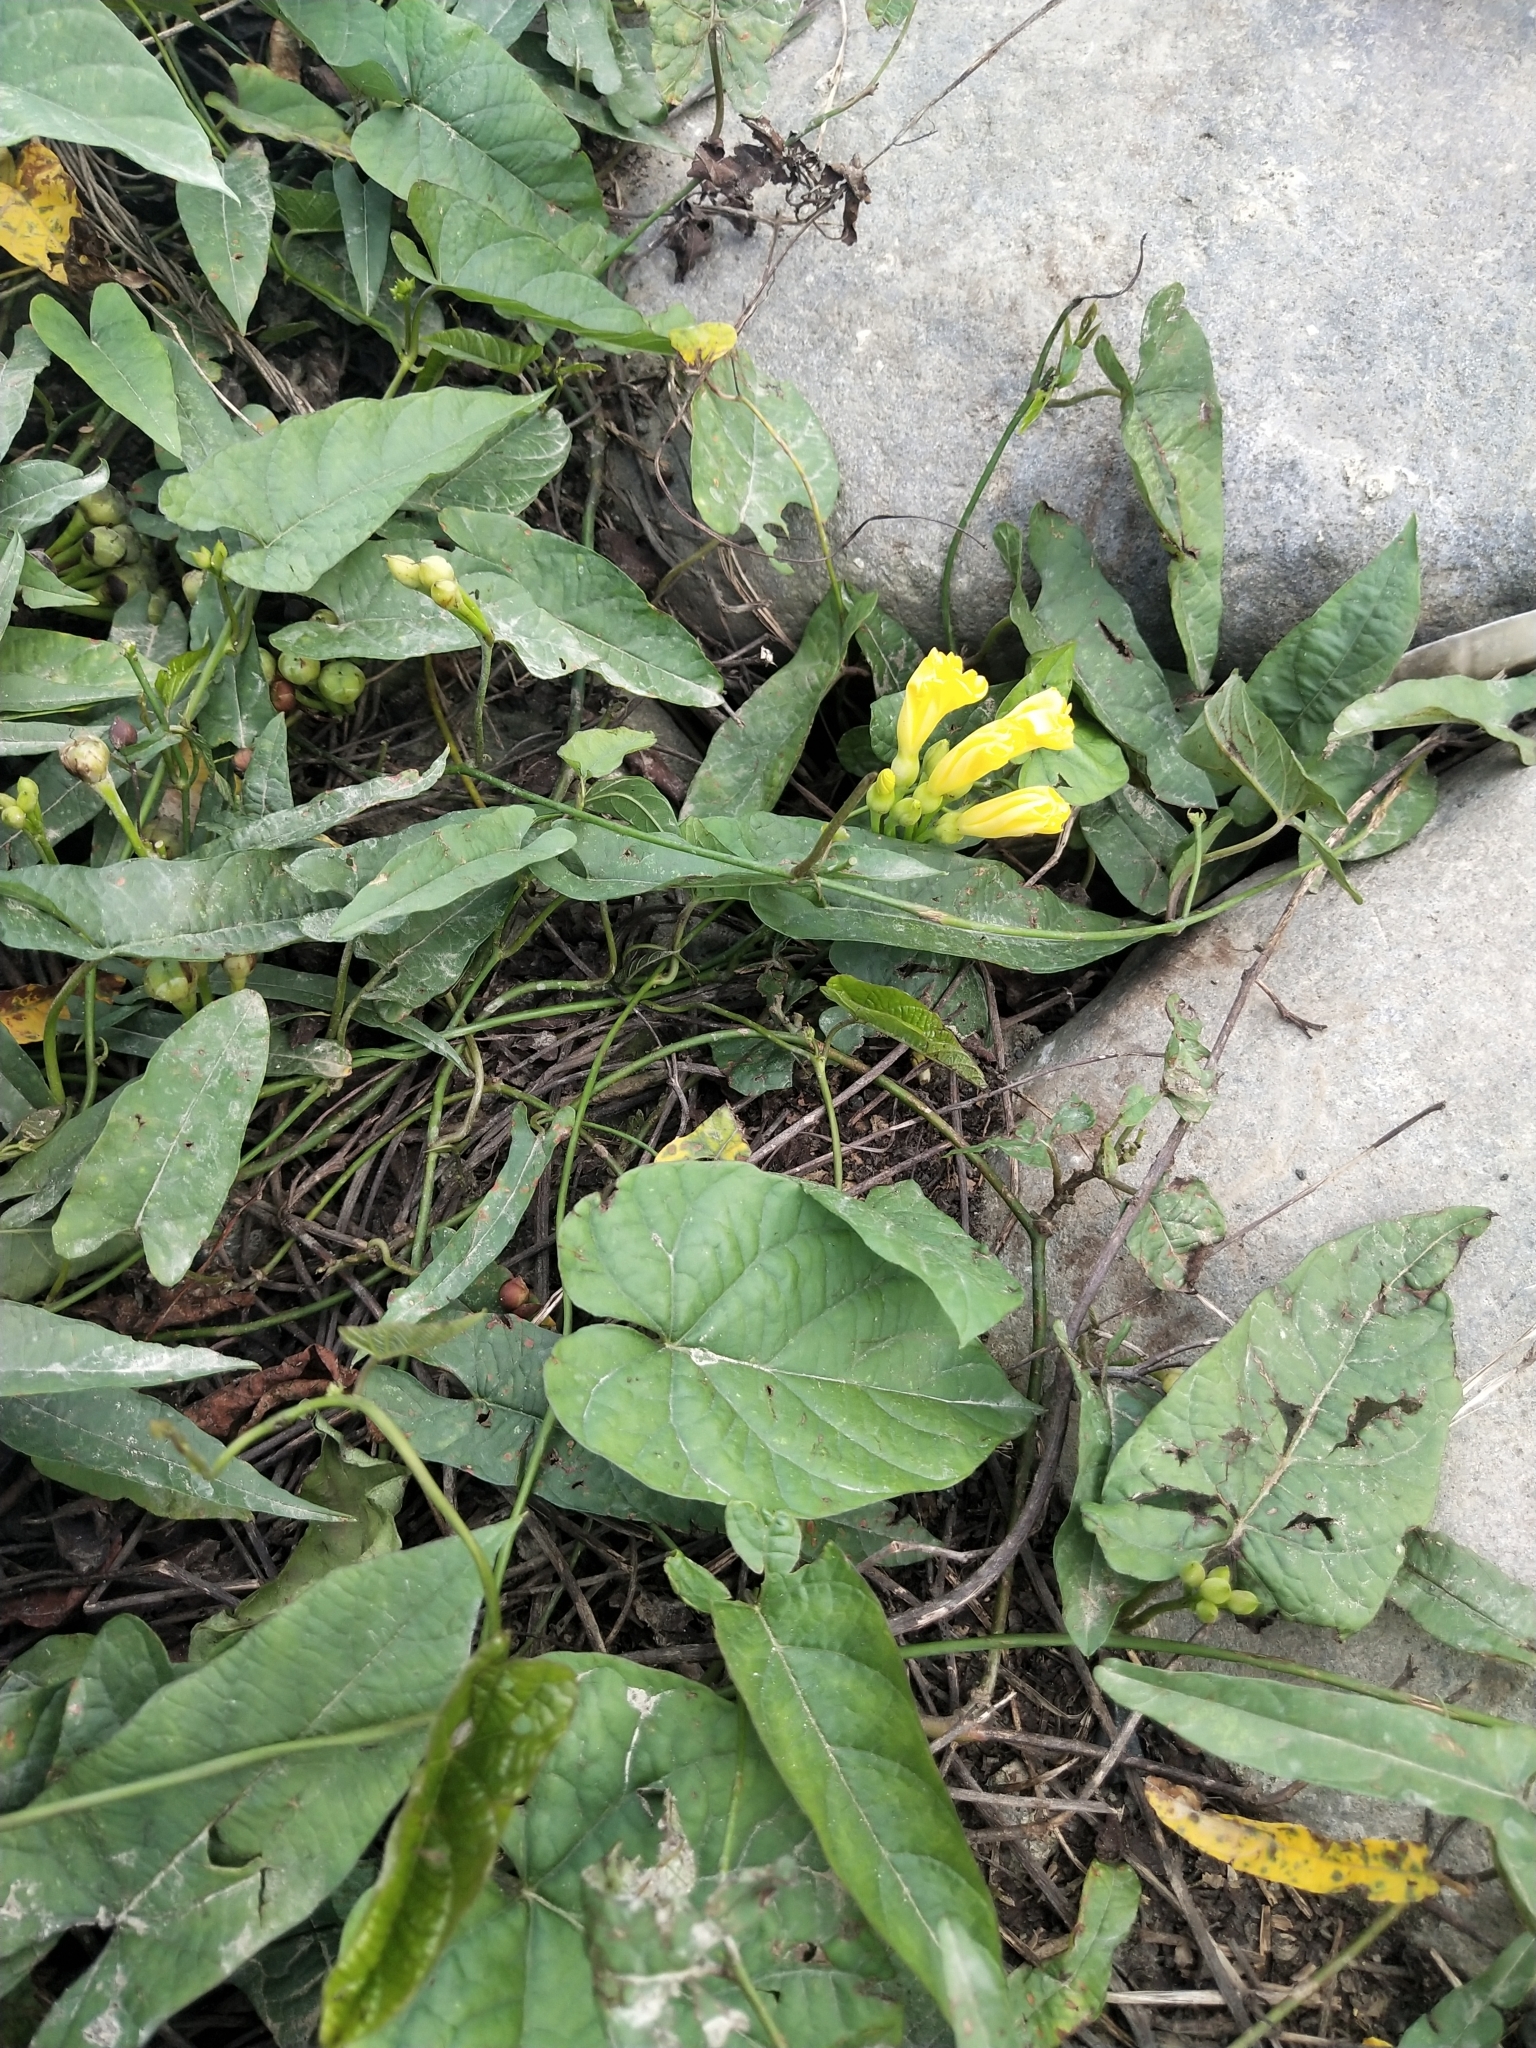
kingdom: Plantae
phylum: Tracheophyta
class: Magnoliopsida
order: Solanales
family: Convolvulaceae
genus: Camonea
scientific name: Camonea umbellata
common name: Hogvine
